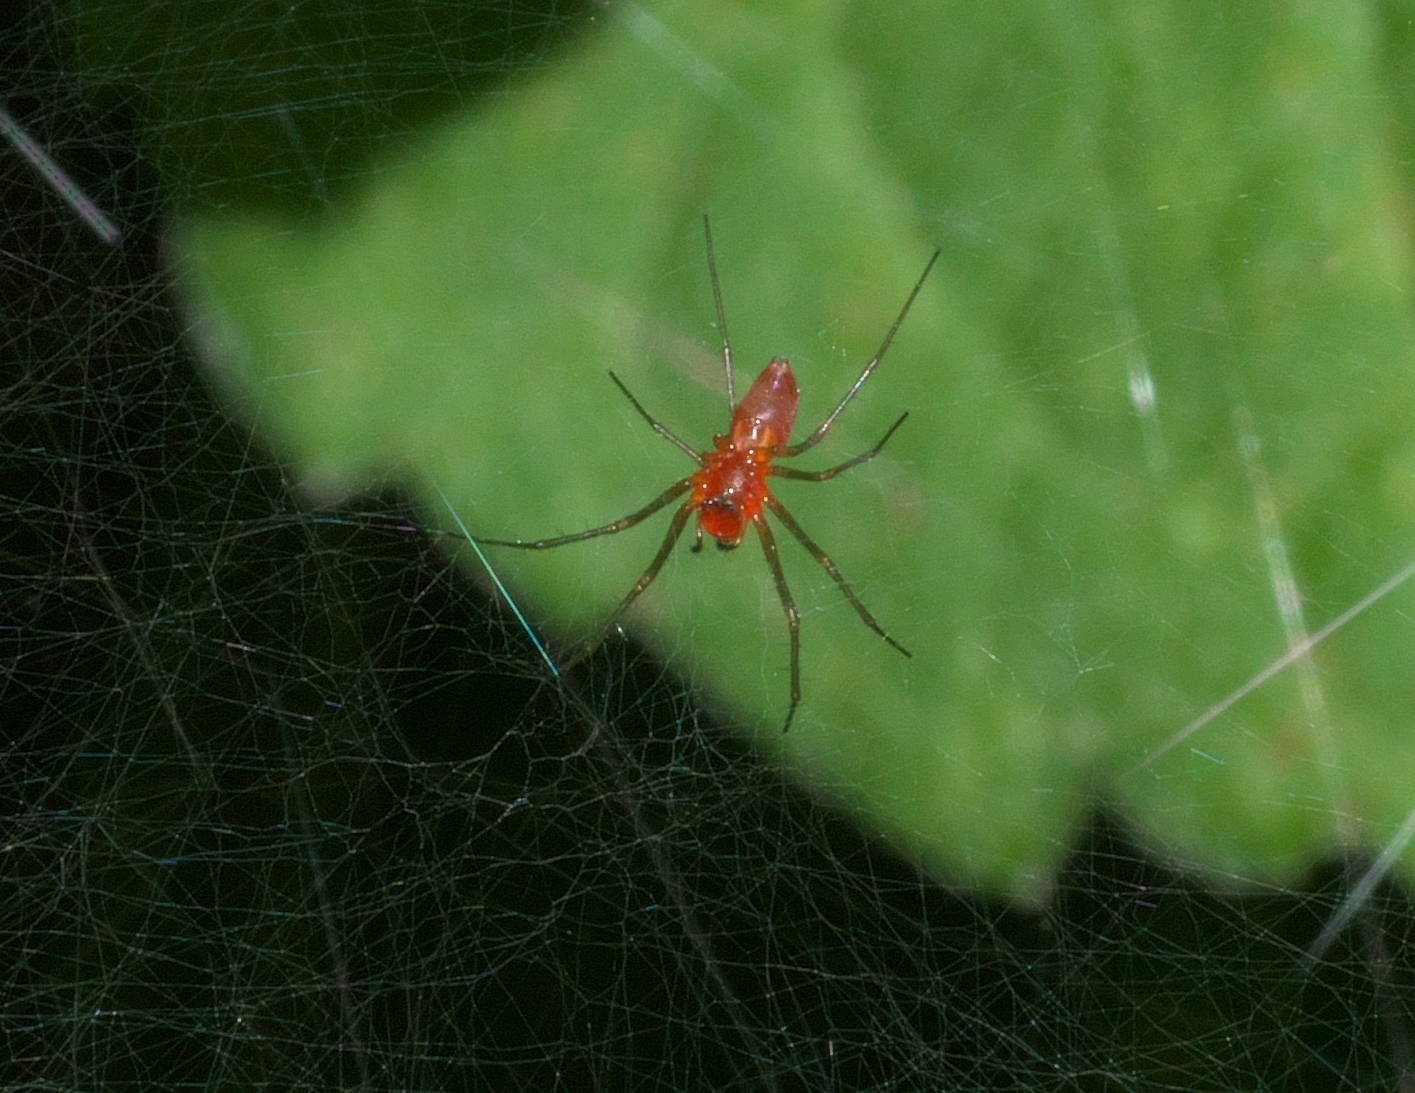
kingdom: Animalia
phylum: Arthropoda
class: Arachnida
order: Araneae
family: Linyphiidae
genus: Florinda
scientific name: Florinda coccinea
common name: Black-tailed red sheetweaver
